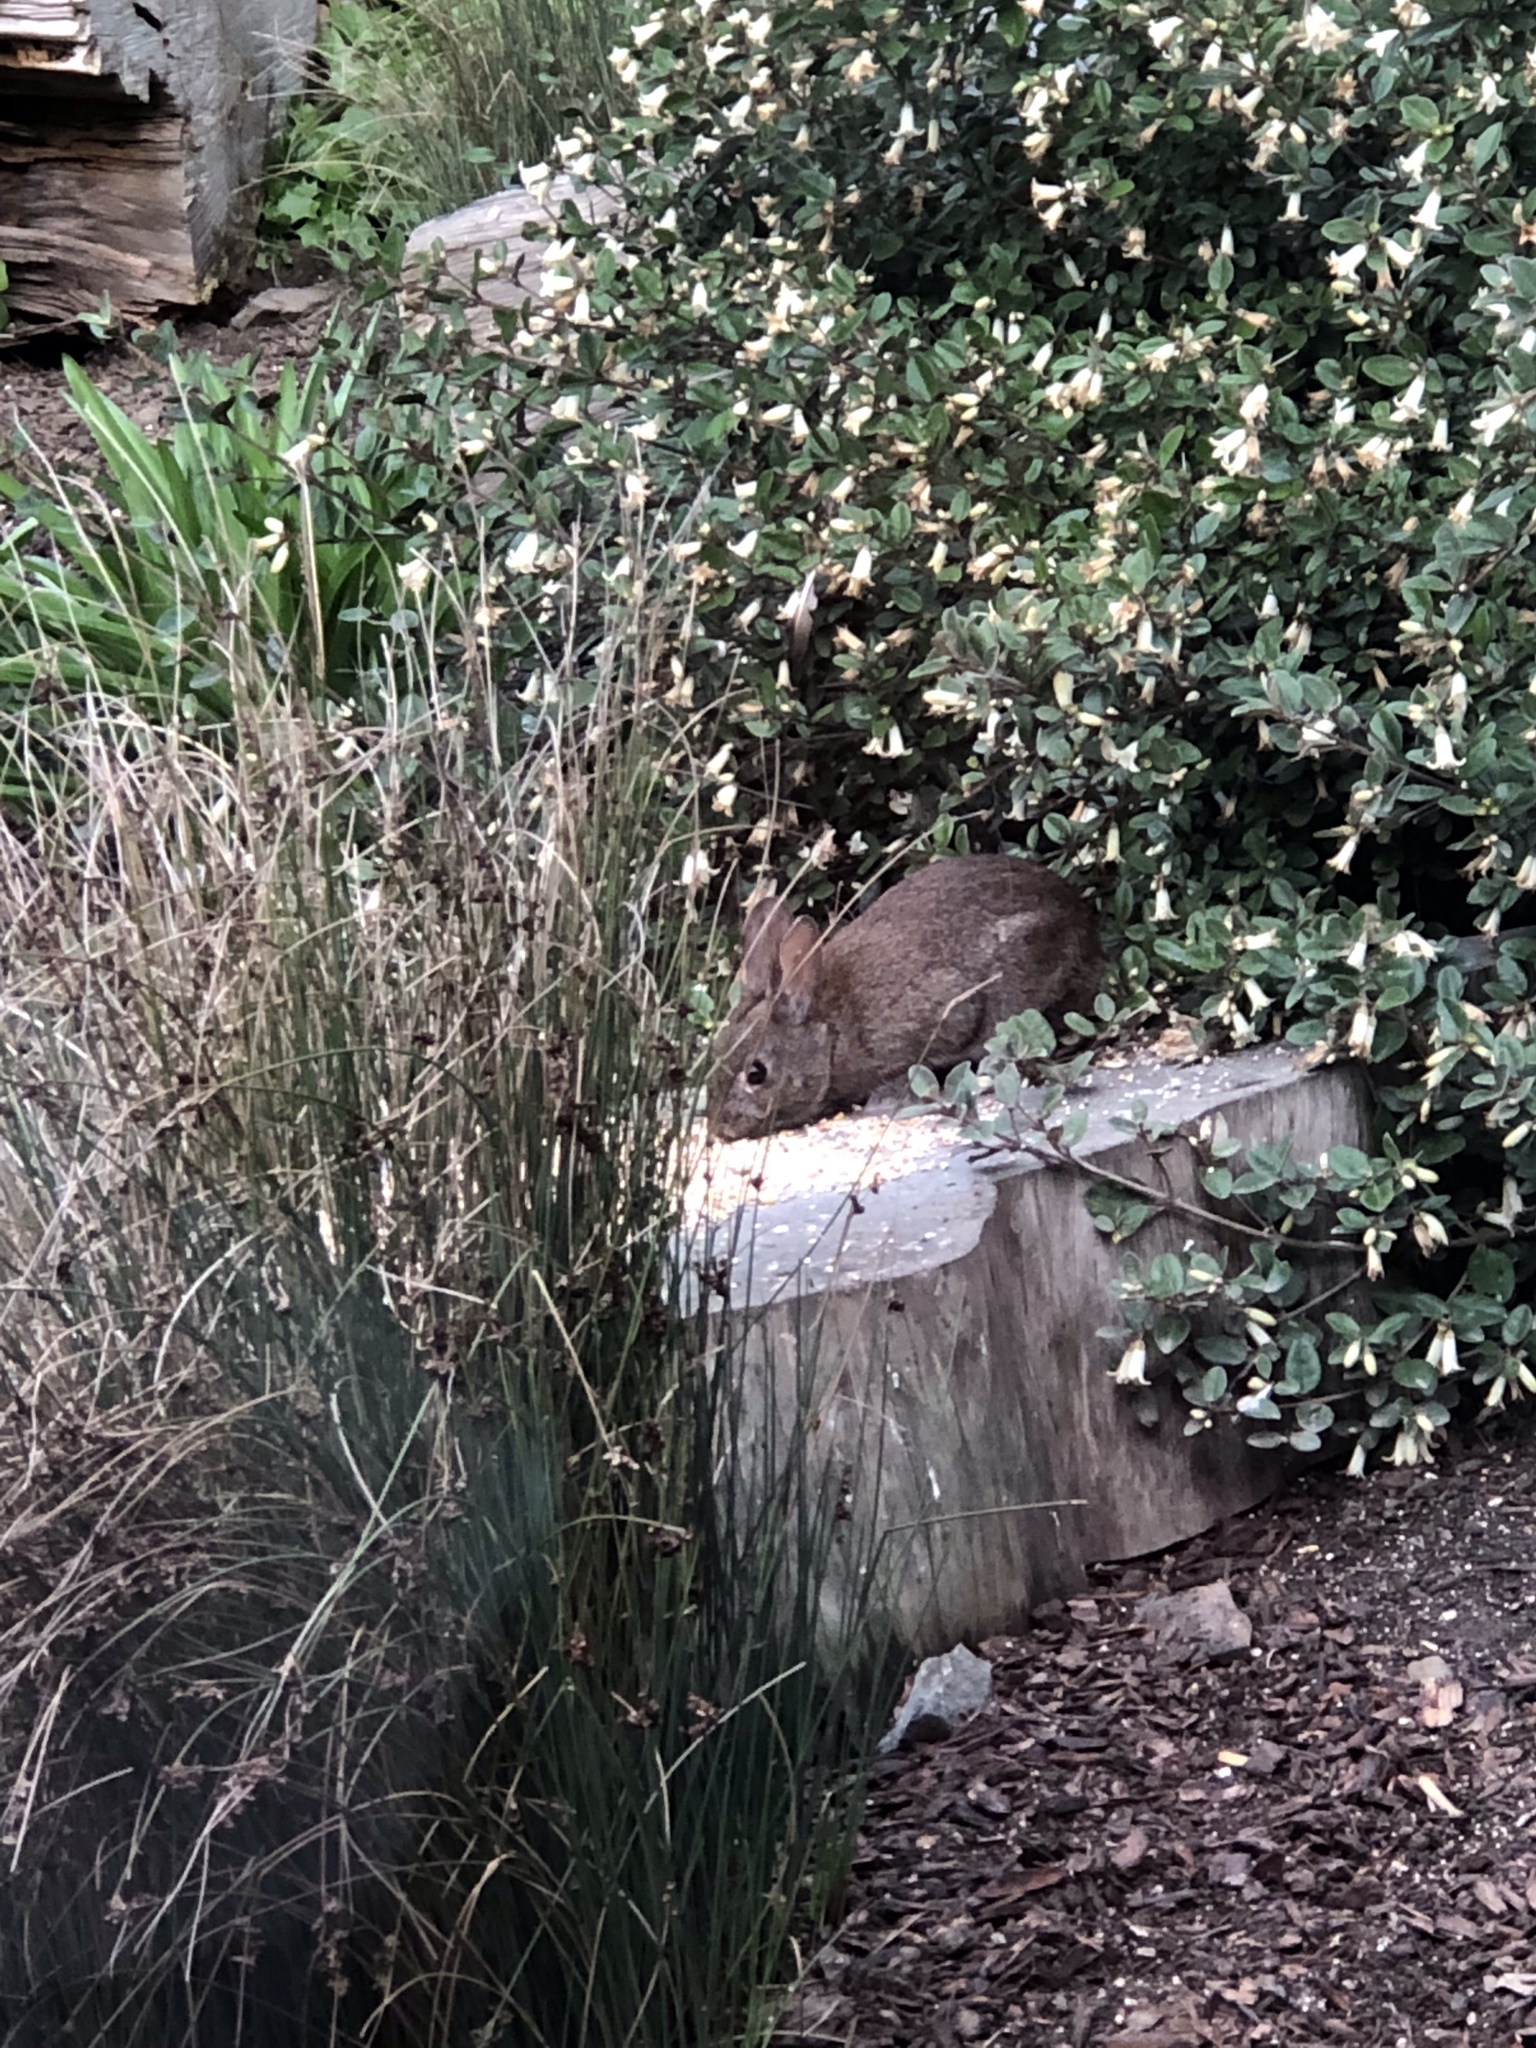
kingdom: Animalia
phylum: Chordata
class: Mammalia
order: Lagomorpha
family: Leporidae
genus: Sylvilagus
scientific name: Sylvilagus bachmani
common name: Brush rabbit
